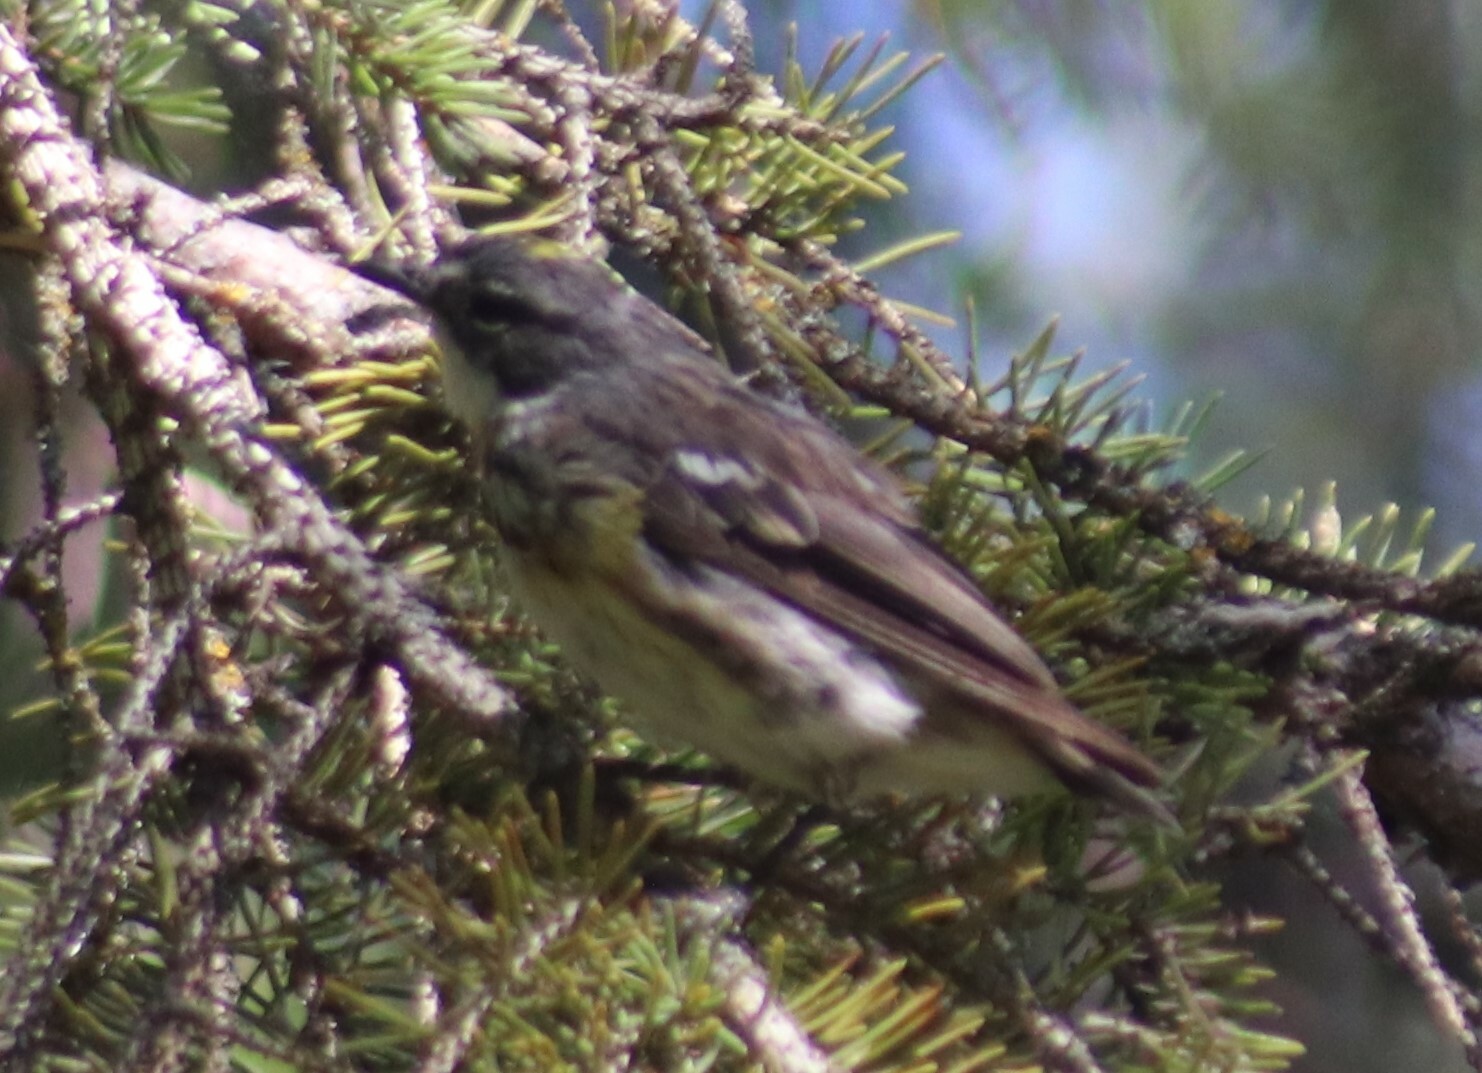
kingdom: Animalia
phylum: Chordata
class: Aves
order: Passeriformes
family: Parulidae
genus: Setophaga
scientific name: Setophaga coronata
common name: Myrtle warbler
